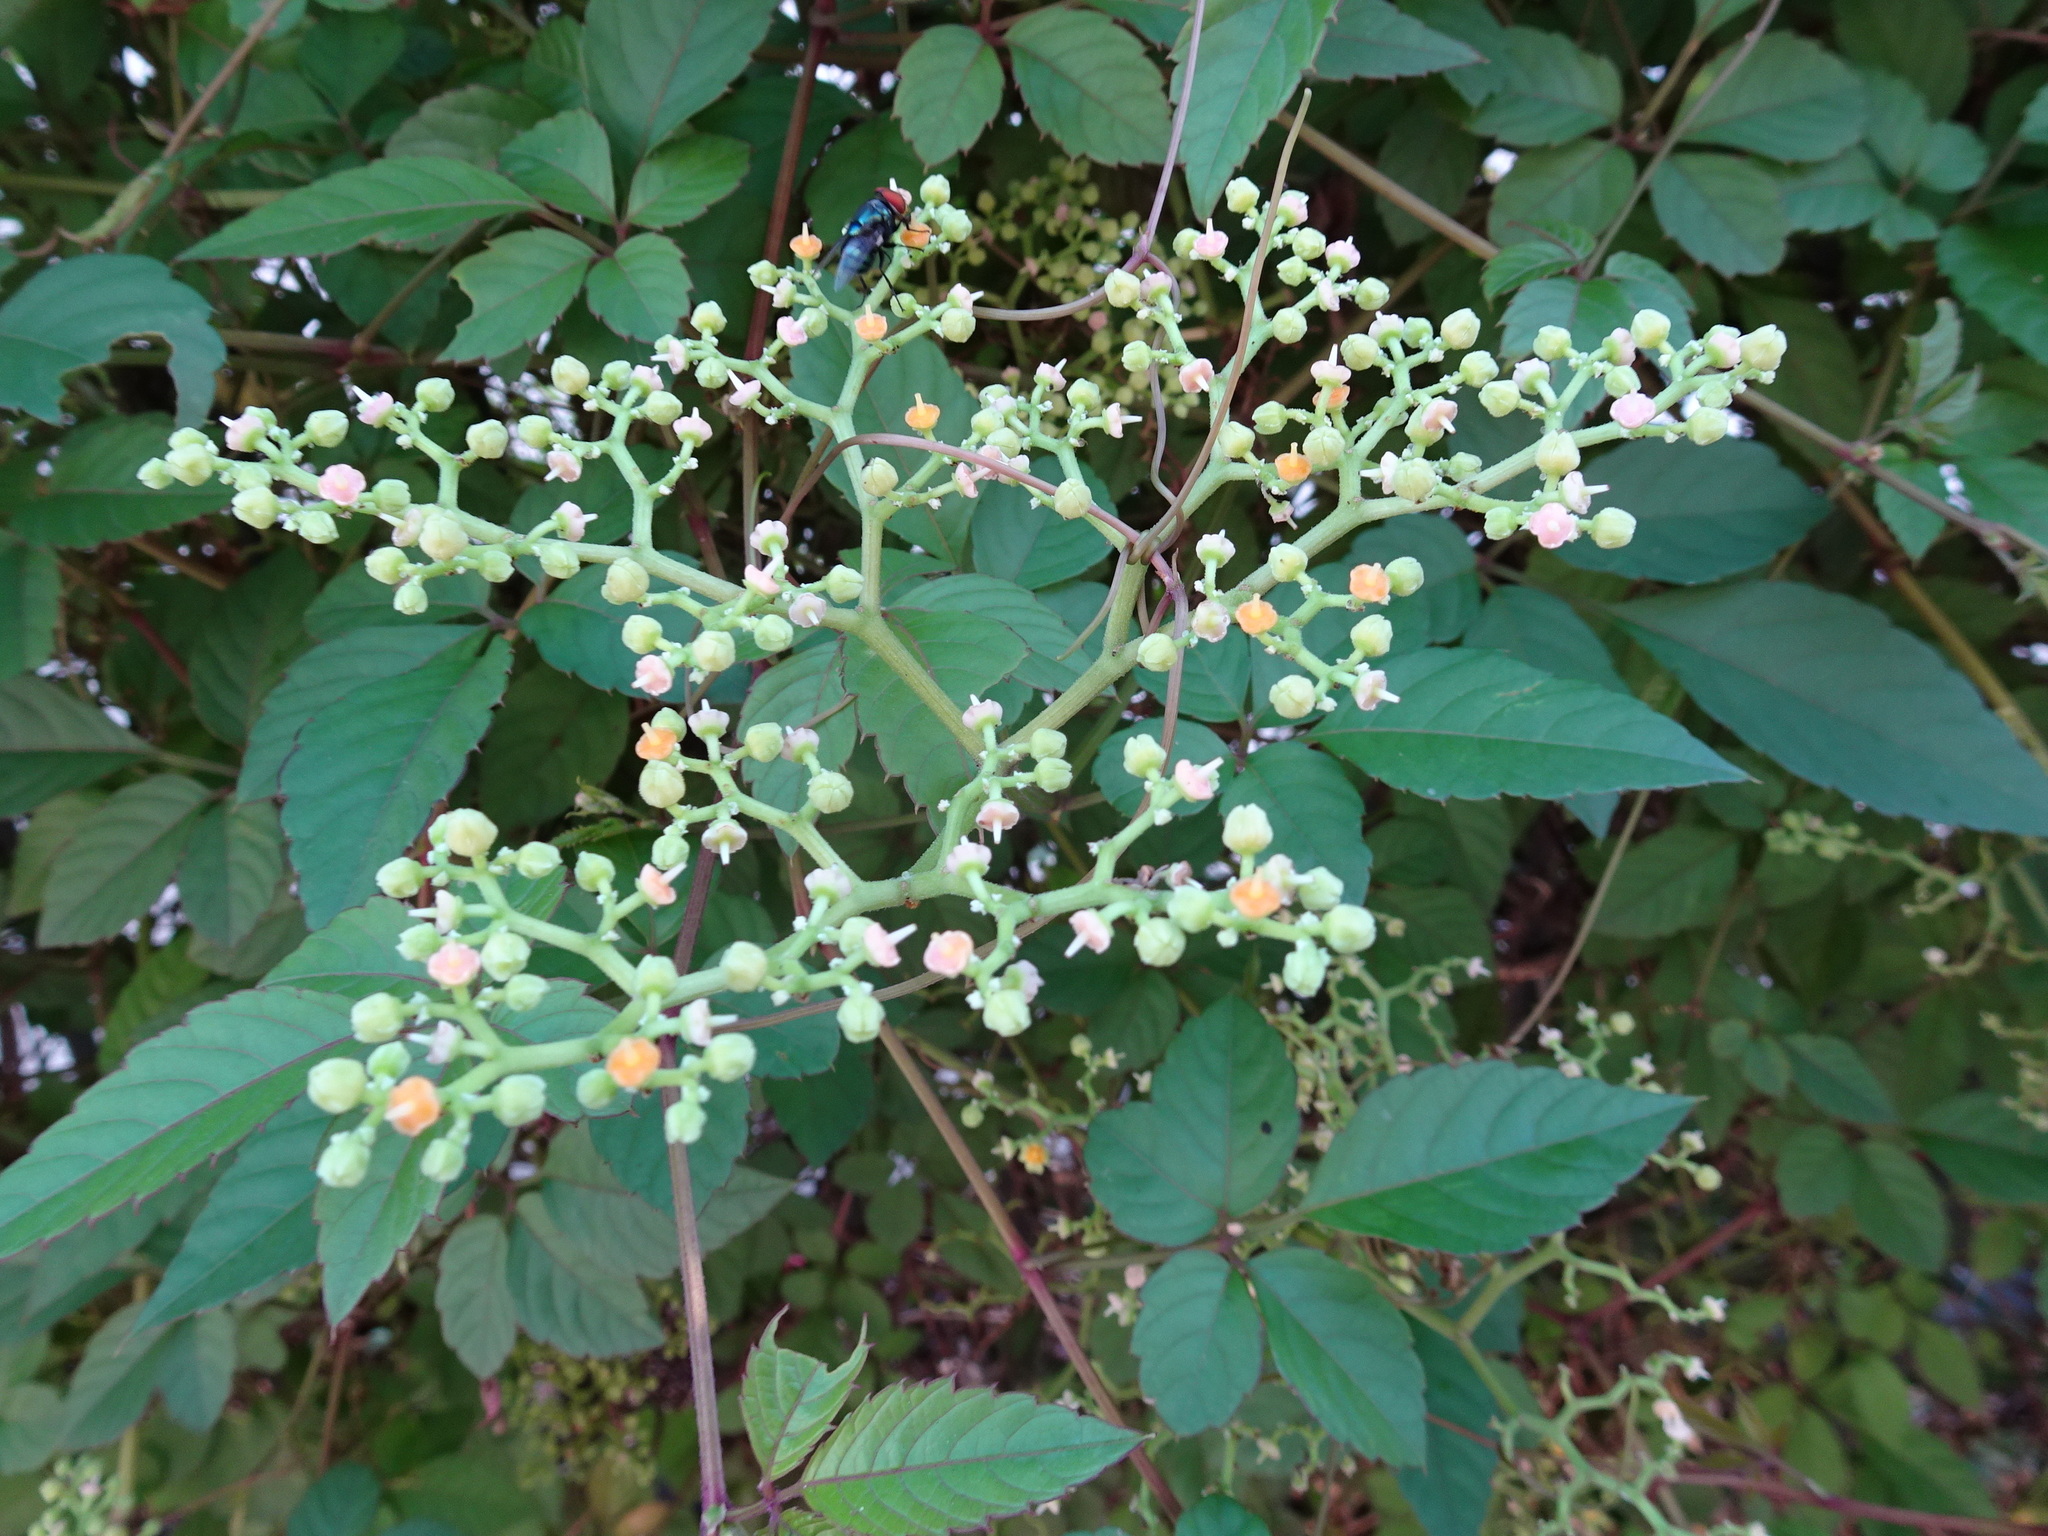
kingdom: Plantae
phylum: Tracheophyta
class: Magnoliopsida
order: Vitales
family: Vitaceae
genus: Causonis
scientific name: Causonis japonica
